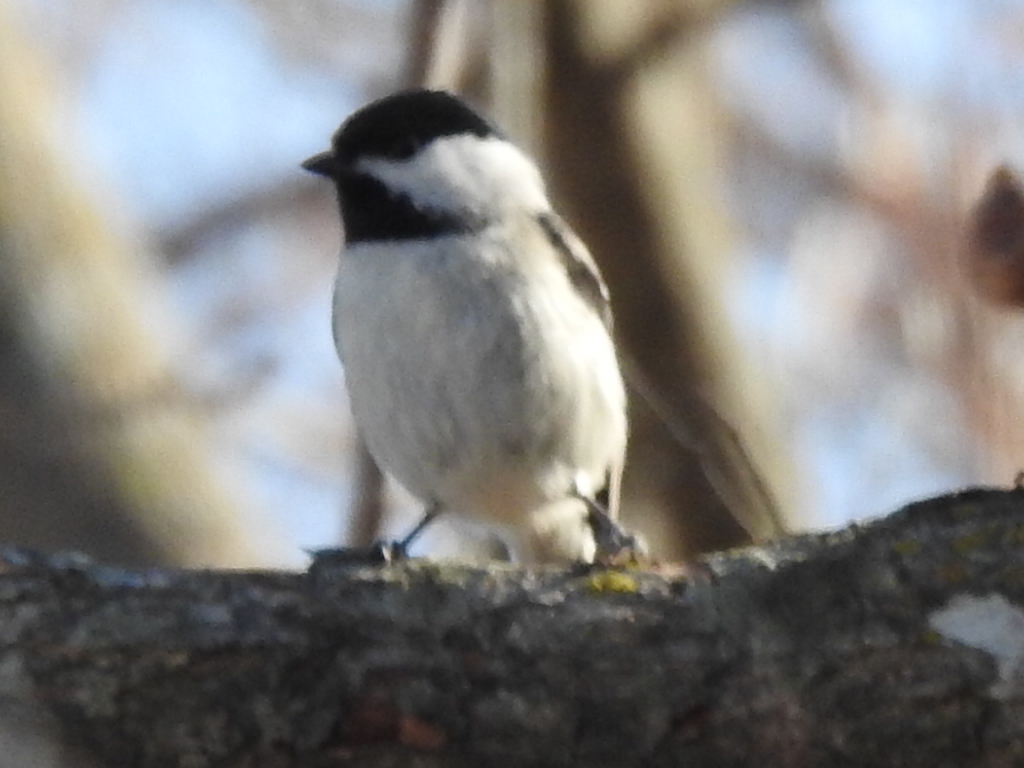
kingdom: Animalia
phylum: Chordata
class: Aves
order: Passeriformes
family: Paridae
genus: Poecile
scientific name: Poecile carolinensis
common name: Carolina chickadee
